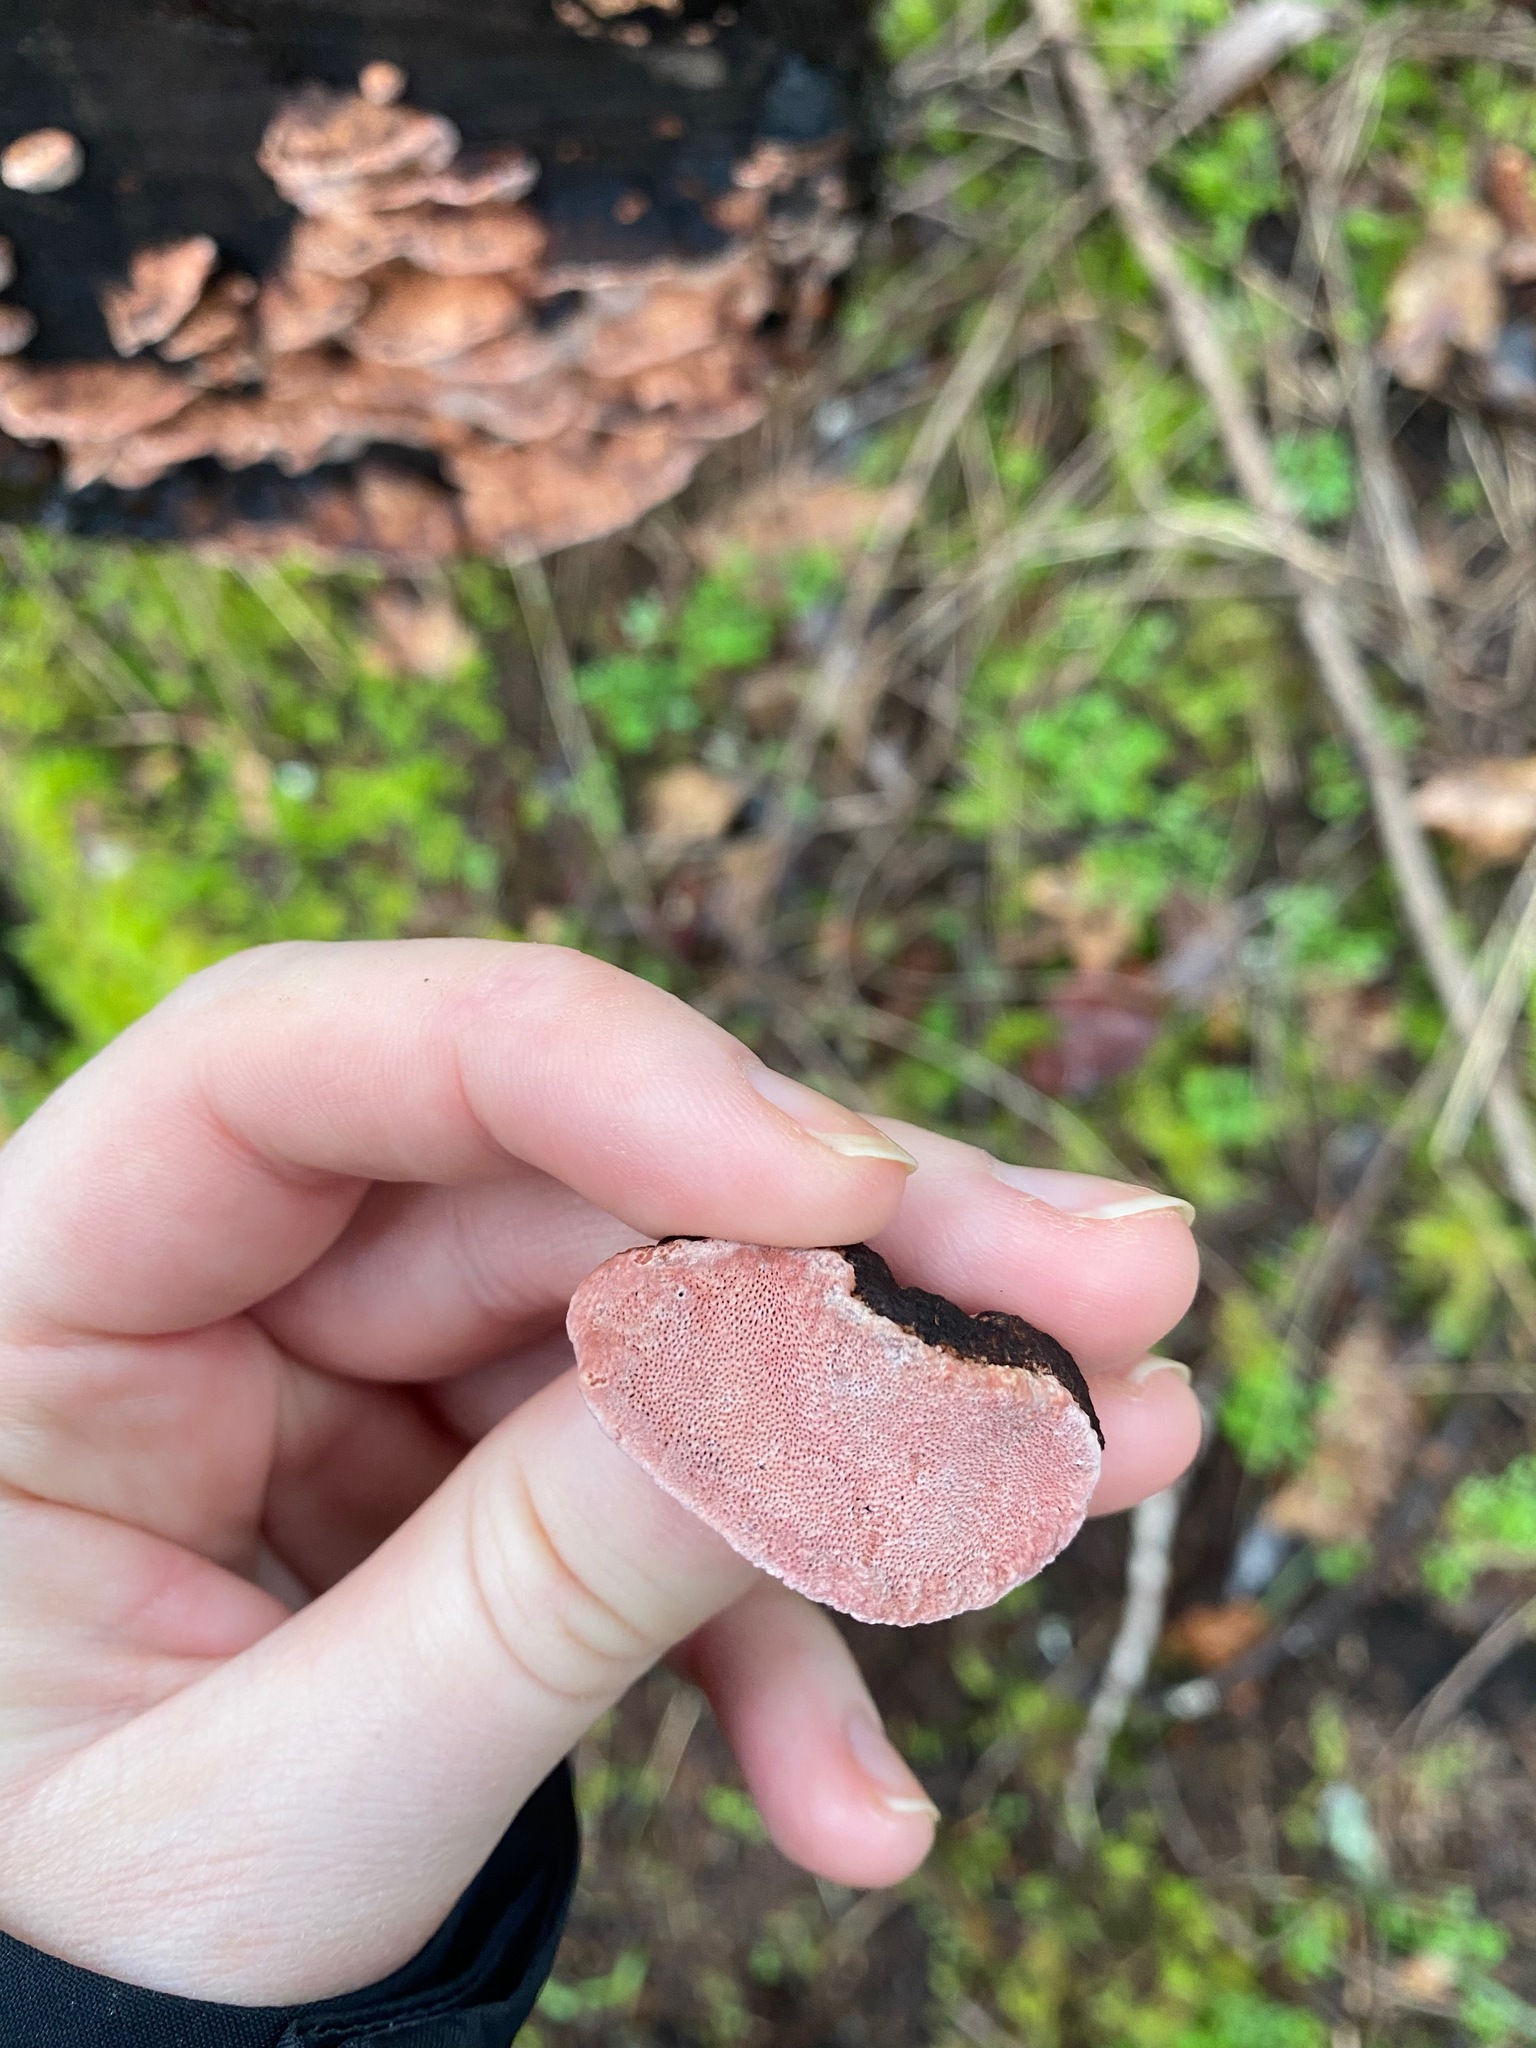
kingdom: Fungi
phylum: Basidiomycota
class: Agaricomycetes
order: Polyporales
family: Fomitopsidaceae
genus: Rhodofomes
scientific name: Rhodofomes cajanderi
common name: Rosy conk
